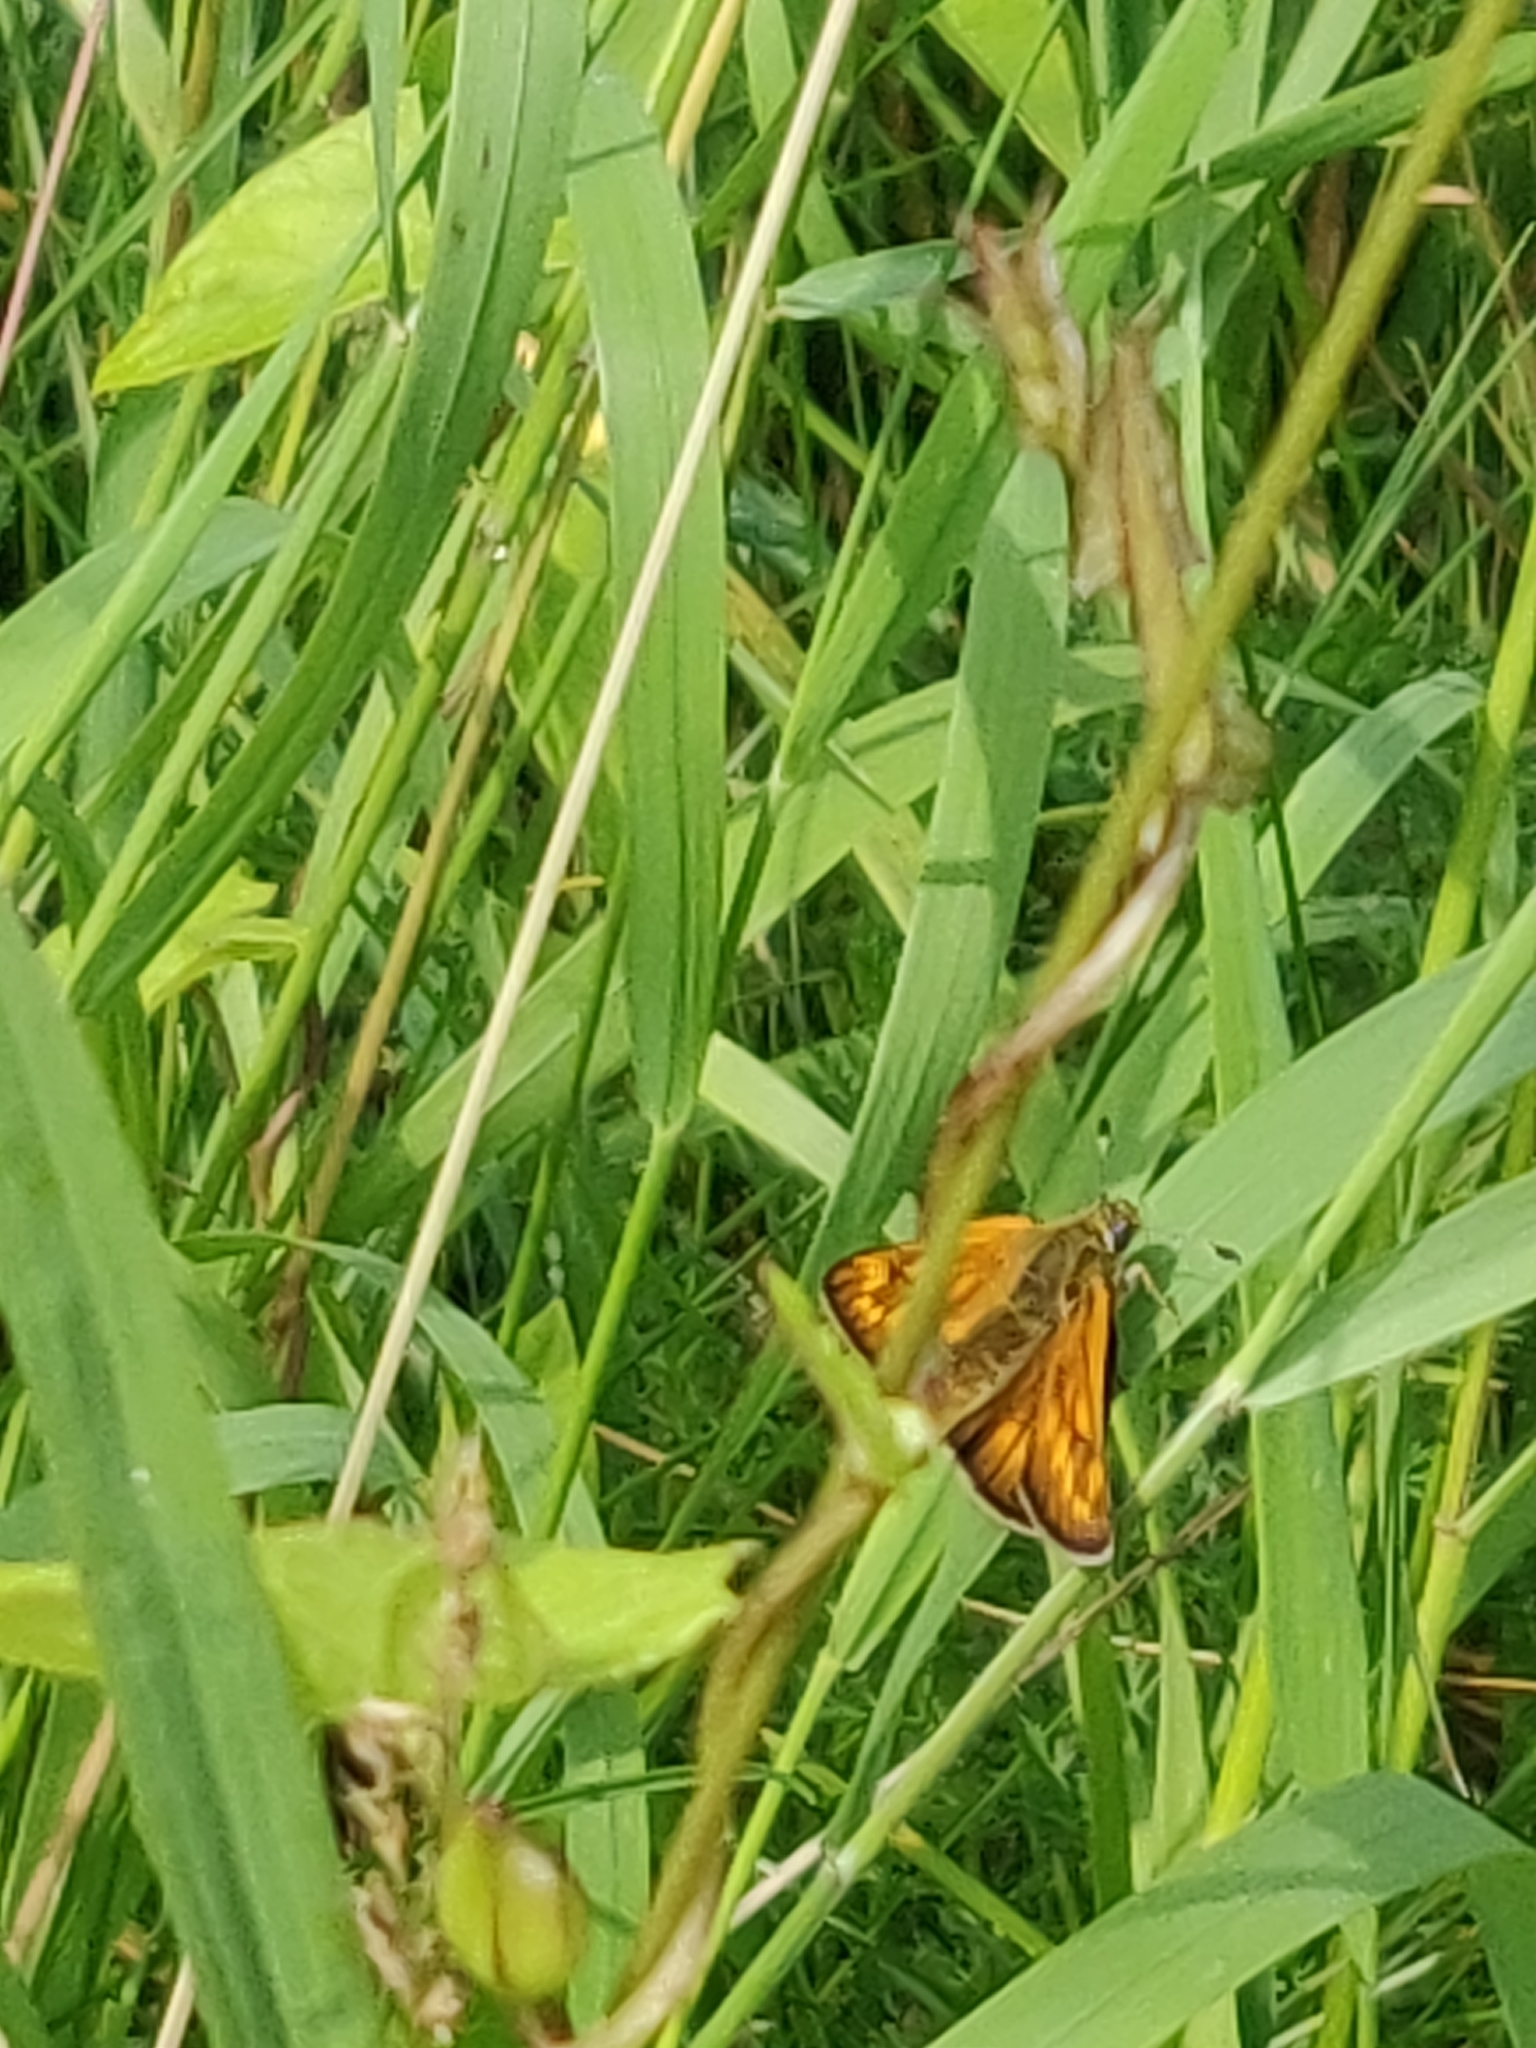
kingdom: Animalia
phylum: Arthropoda
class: Insecta
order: Lepidoptera
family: Hesperiidae
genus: Ochlodes
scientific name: Ochlodes venata
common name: Large skipper
